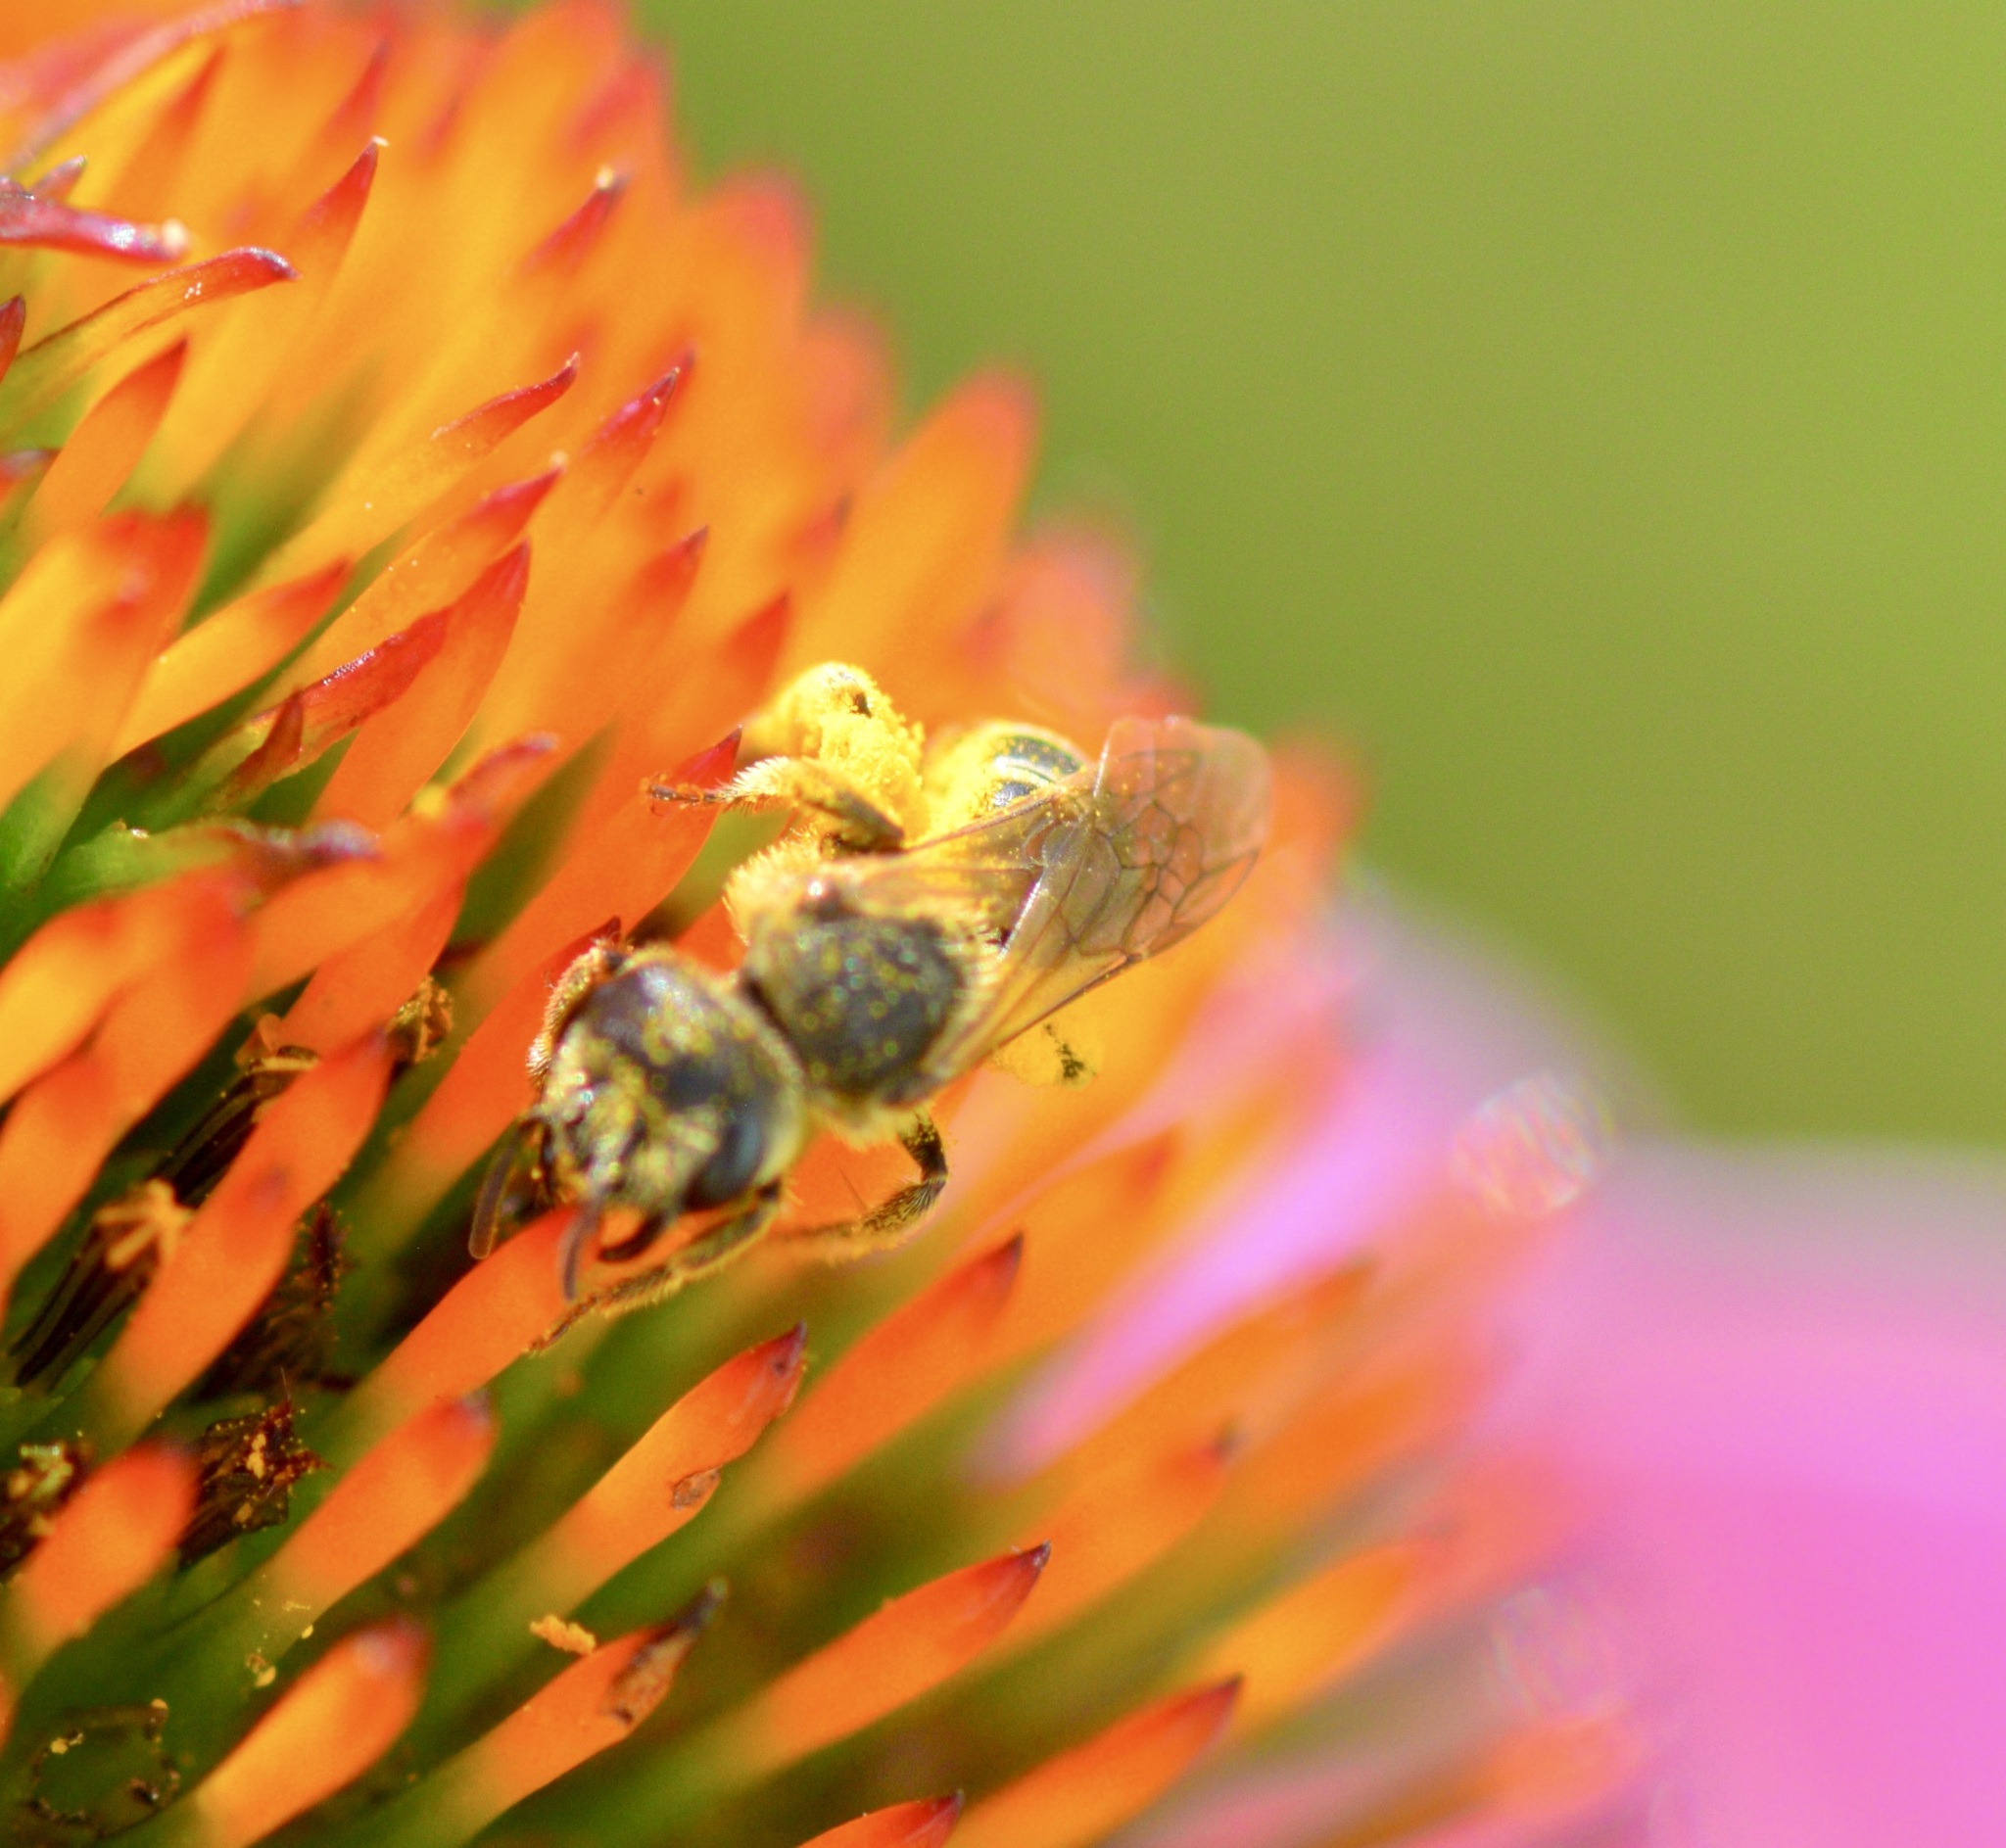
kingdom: Animalia
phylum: Arthropoda
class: Insecta
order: Hymenoptera
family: Halictidae
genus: Halictus
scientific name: Halictus ligatus
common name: Ligated furrow bee
